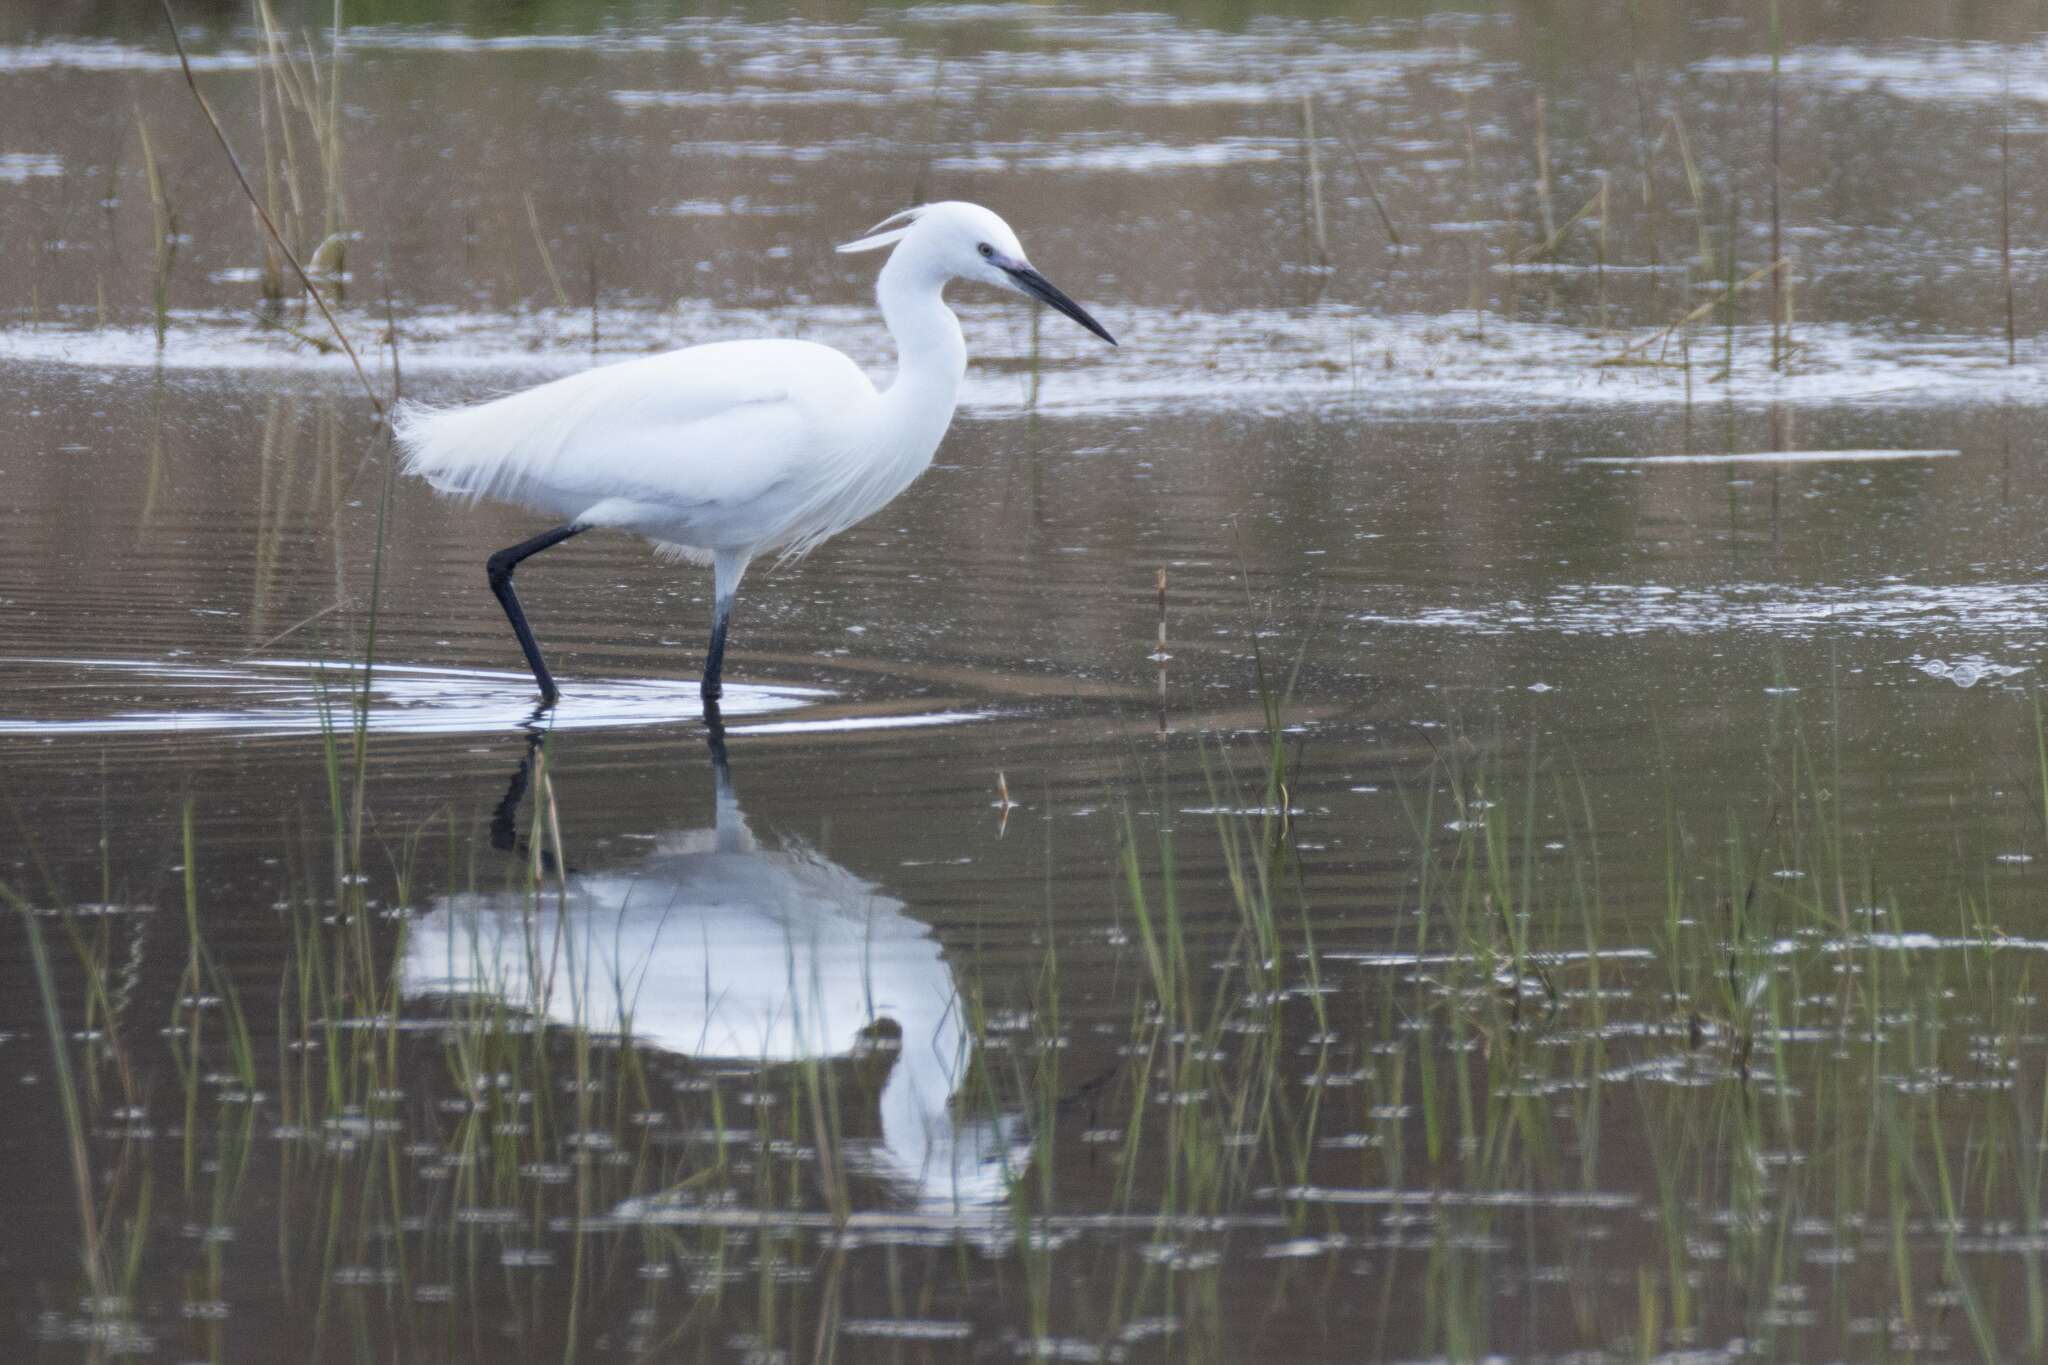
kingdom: Animalia
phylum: Chordata
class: Aves
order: Pelecaniformes
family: Ardeidae
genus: Egretta
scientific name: Egretta garzetta
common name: Little egret
